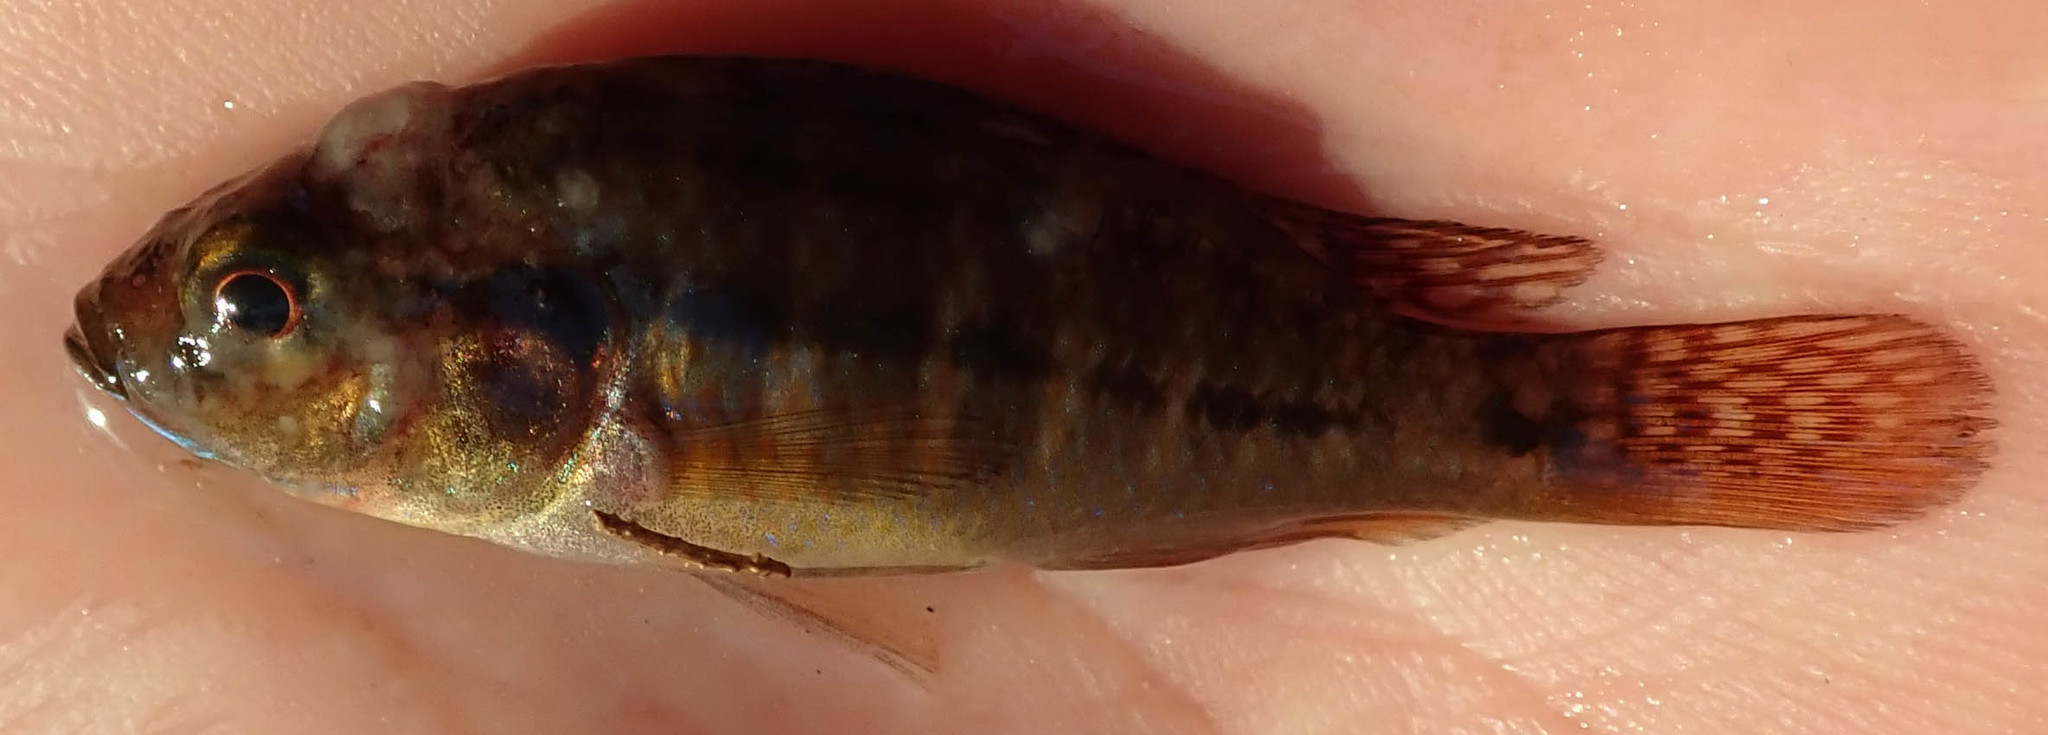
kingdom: Animalia
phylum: Chordata
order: Perciformes
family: Cichlidae
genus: Pseudocrenilabrus
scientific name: Pseudocrenilabrus philander
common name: Southern mouthbrooder
